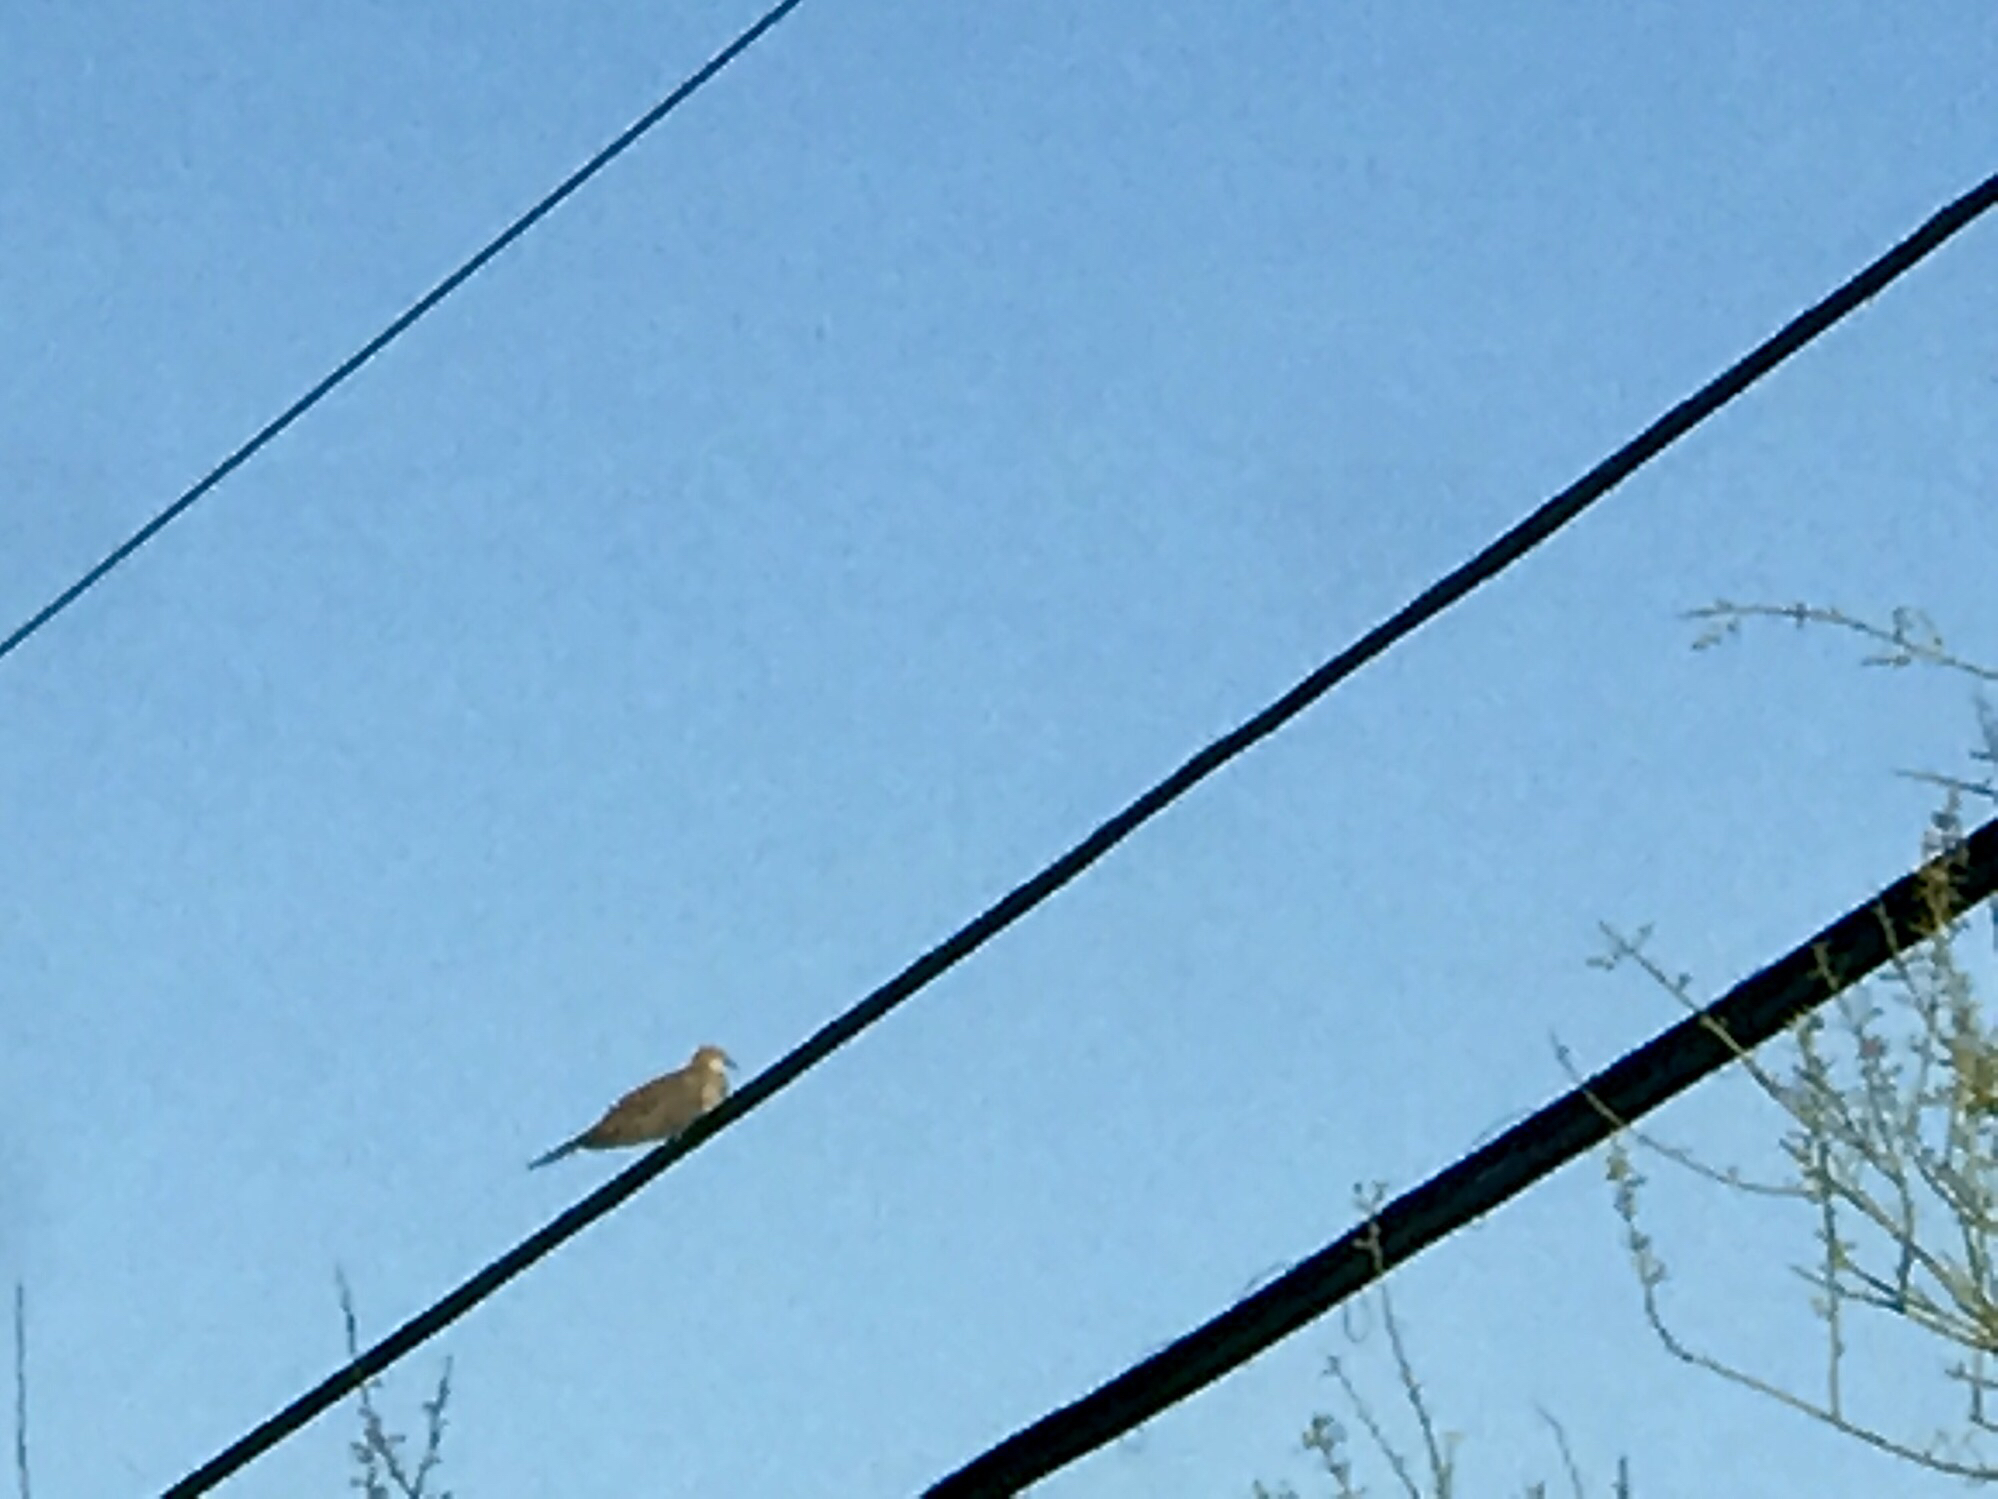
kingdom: Animalia
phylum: Chordata
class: Aves
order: Columbiformes
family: Columbidae
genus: Zenaida
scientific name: Zenaida macroura
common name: Mourning dove
